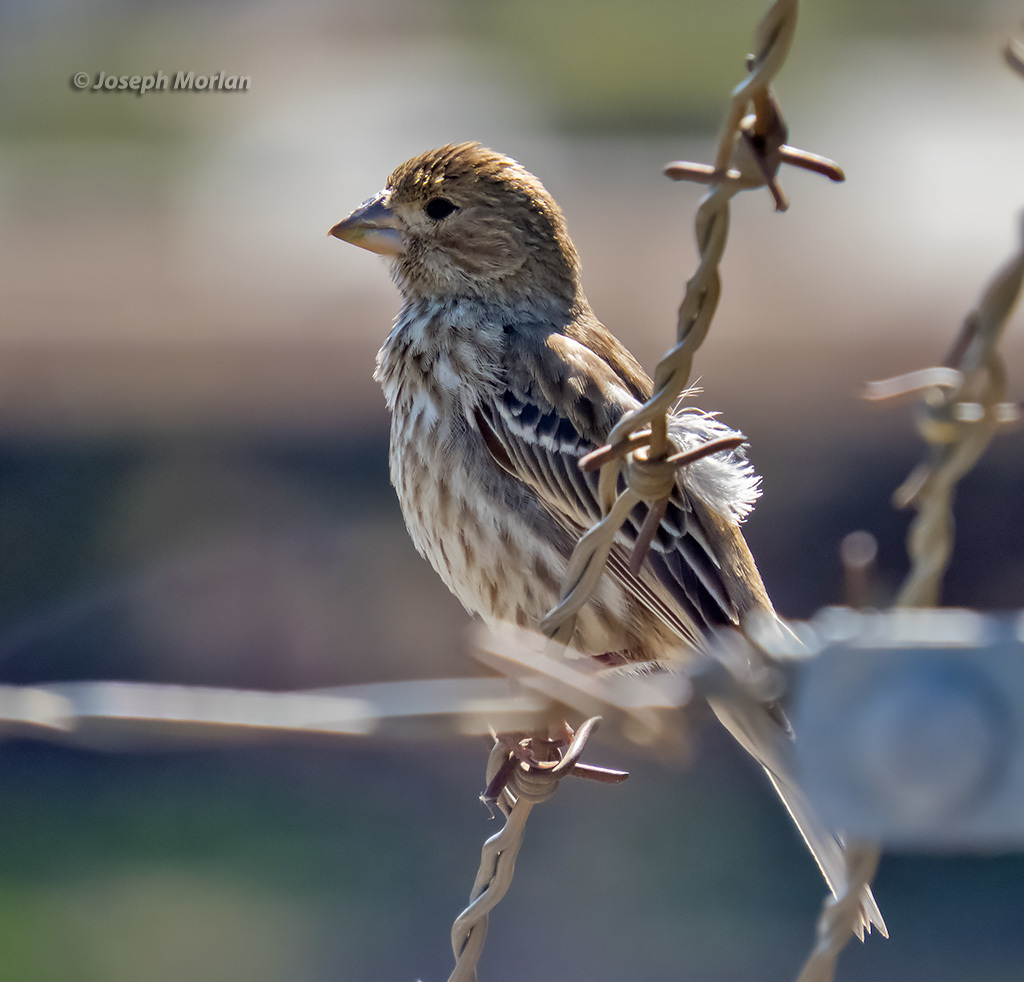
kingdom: Animalia
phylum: Chordata
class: Aves
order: Passeriformes
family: Fringillidae
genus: Haemorhous
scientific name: Haemorhous mexicanus
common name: House finch
